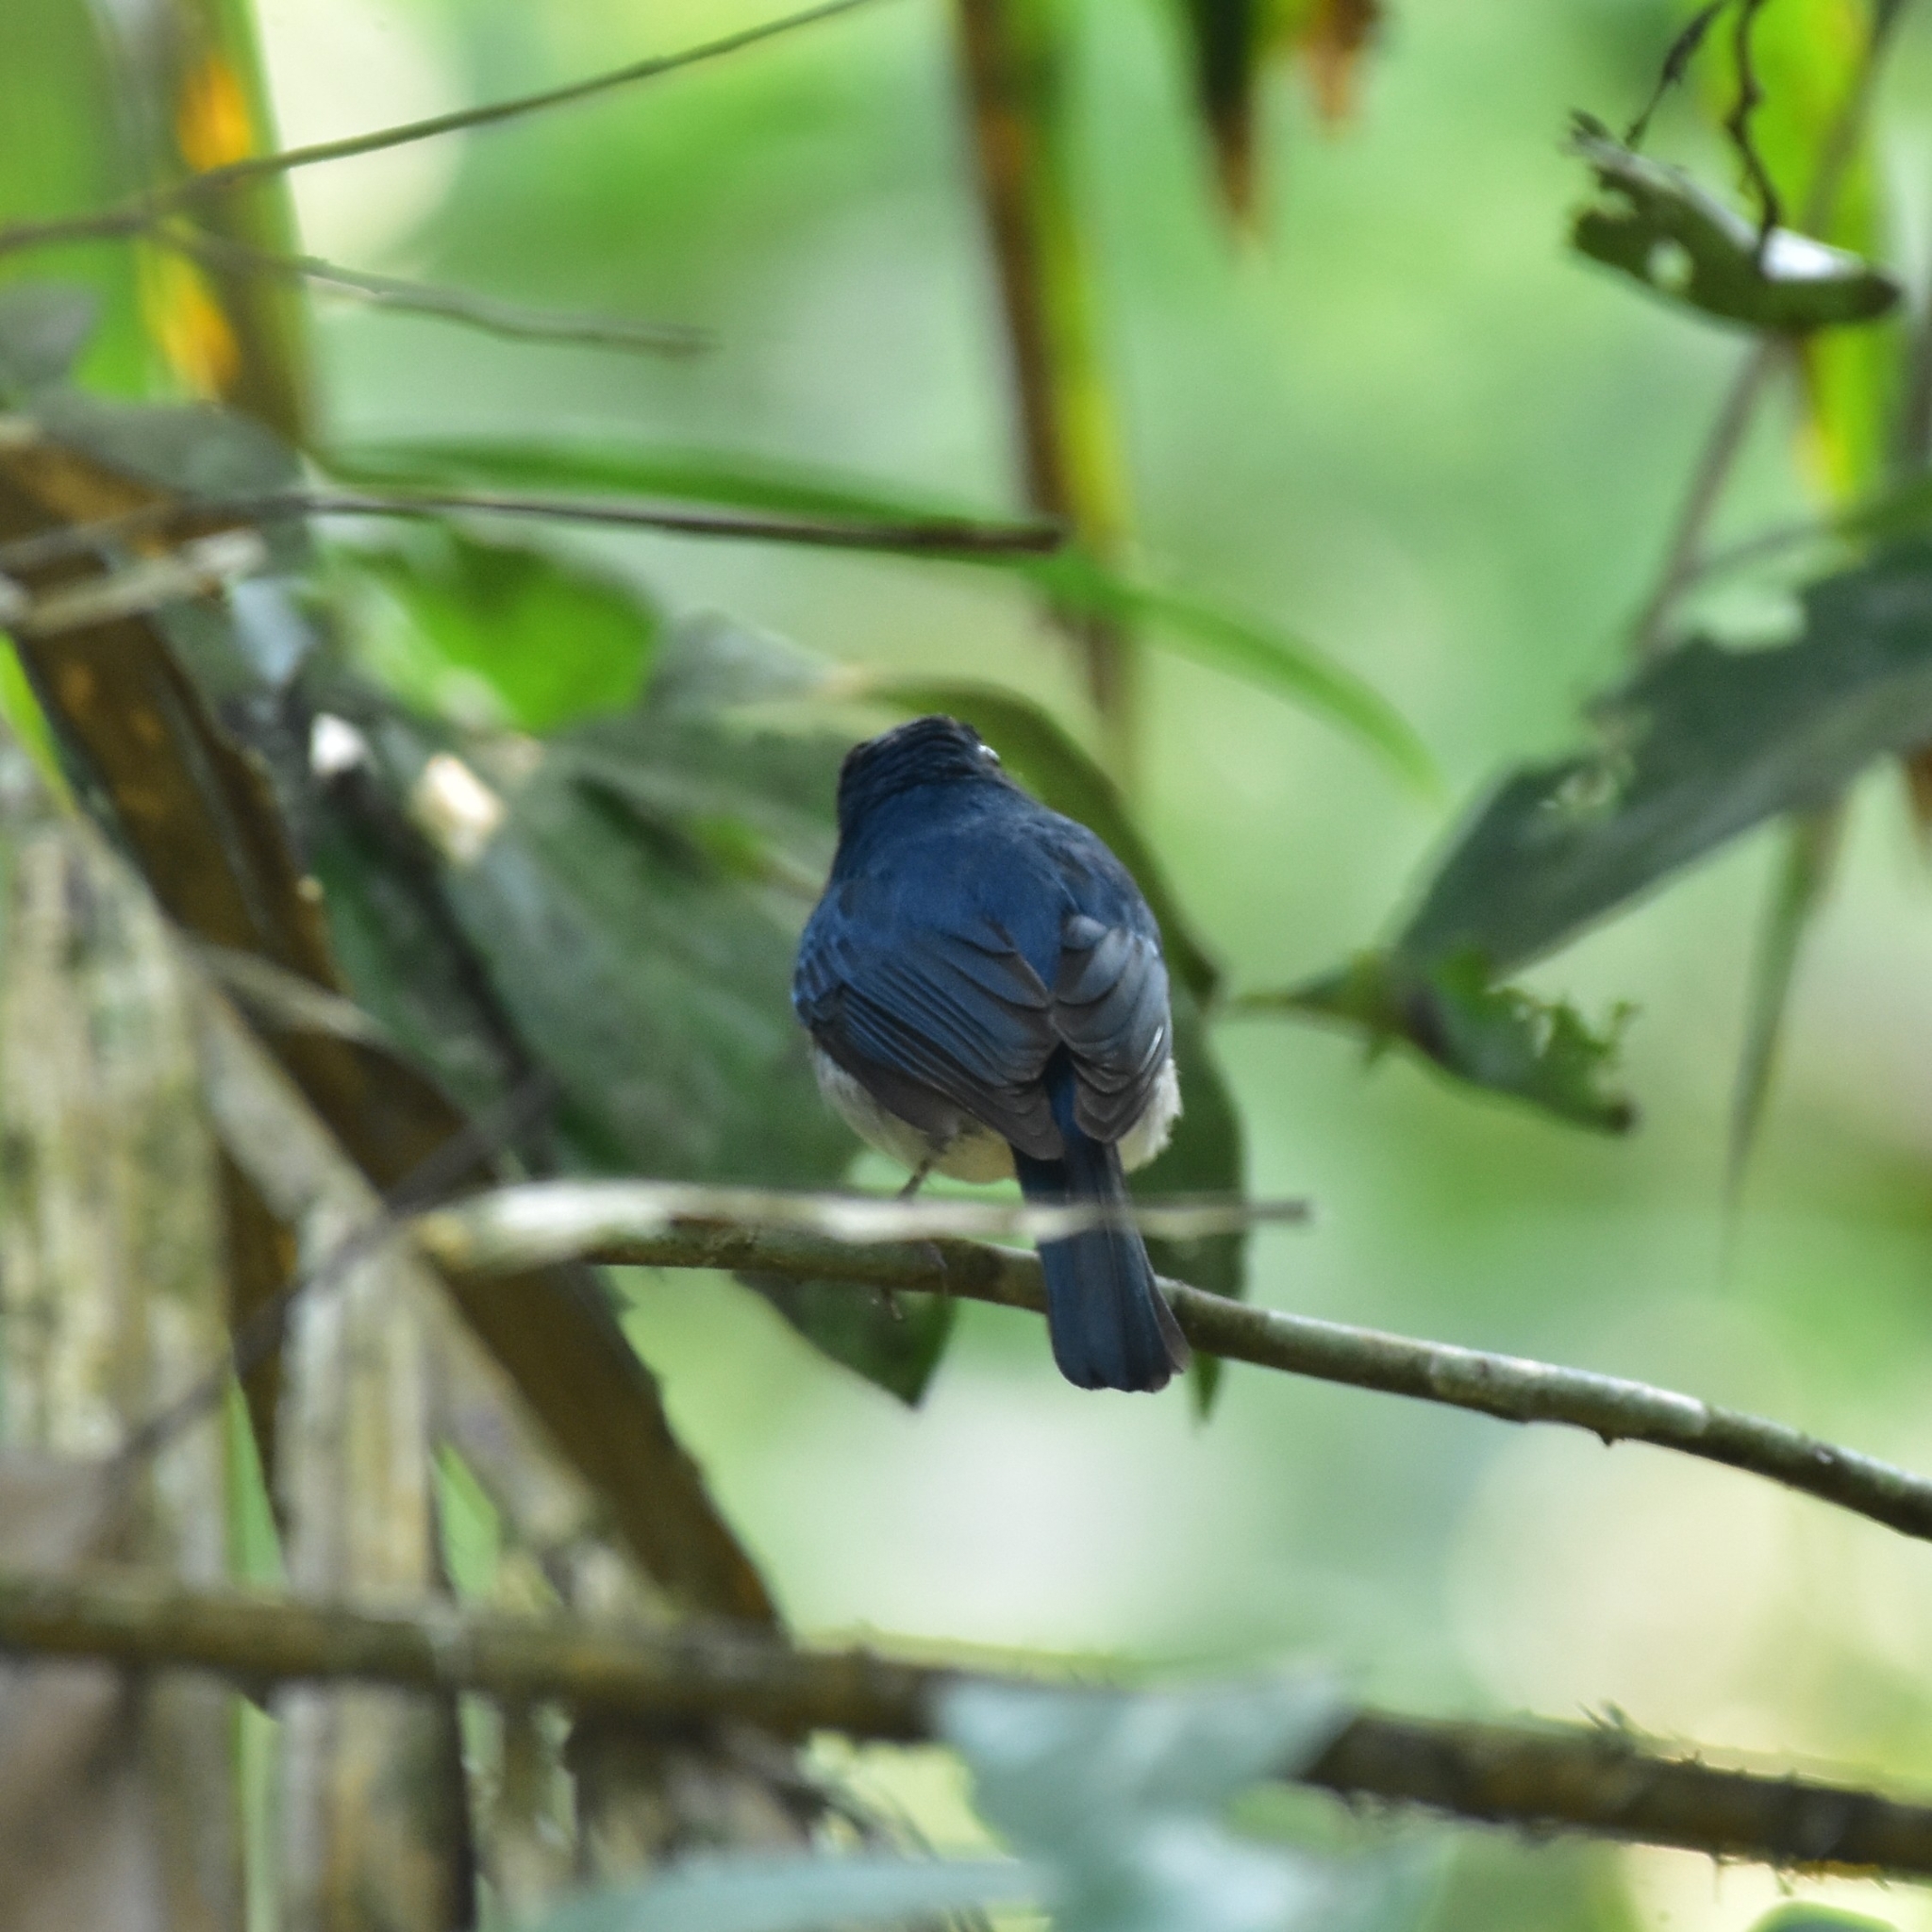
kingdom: Animalia
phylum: Chordata
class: Aves
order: Passeriformes
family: Muscicapidae
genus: Cyornis
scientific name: Cyornis pallidipes
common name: White-bellied blue flycatcher
